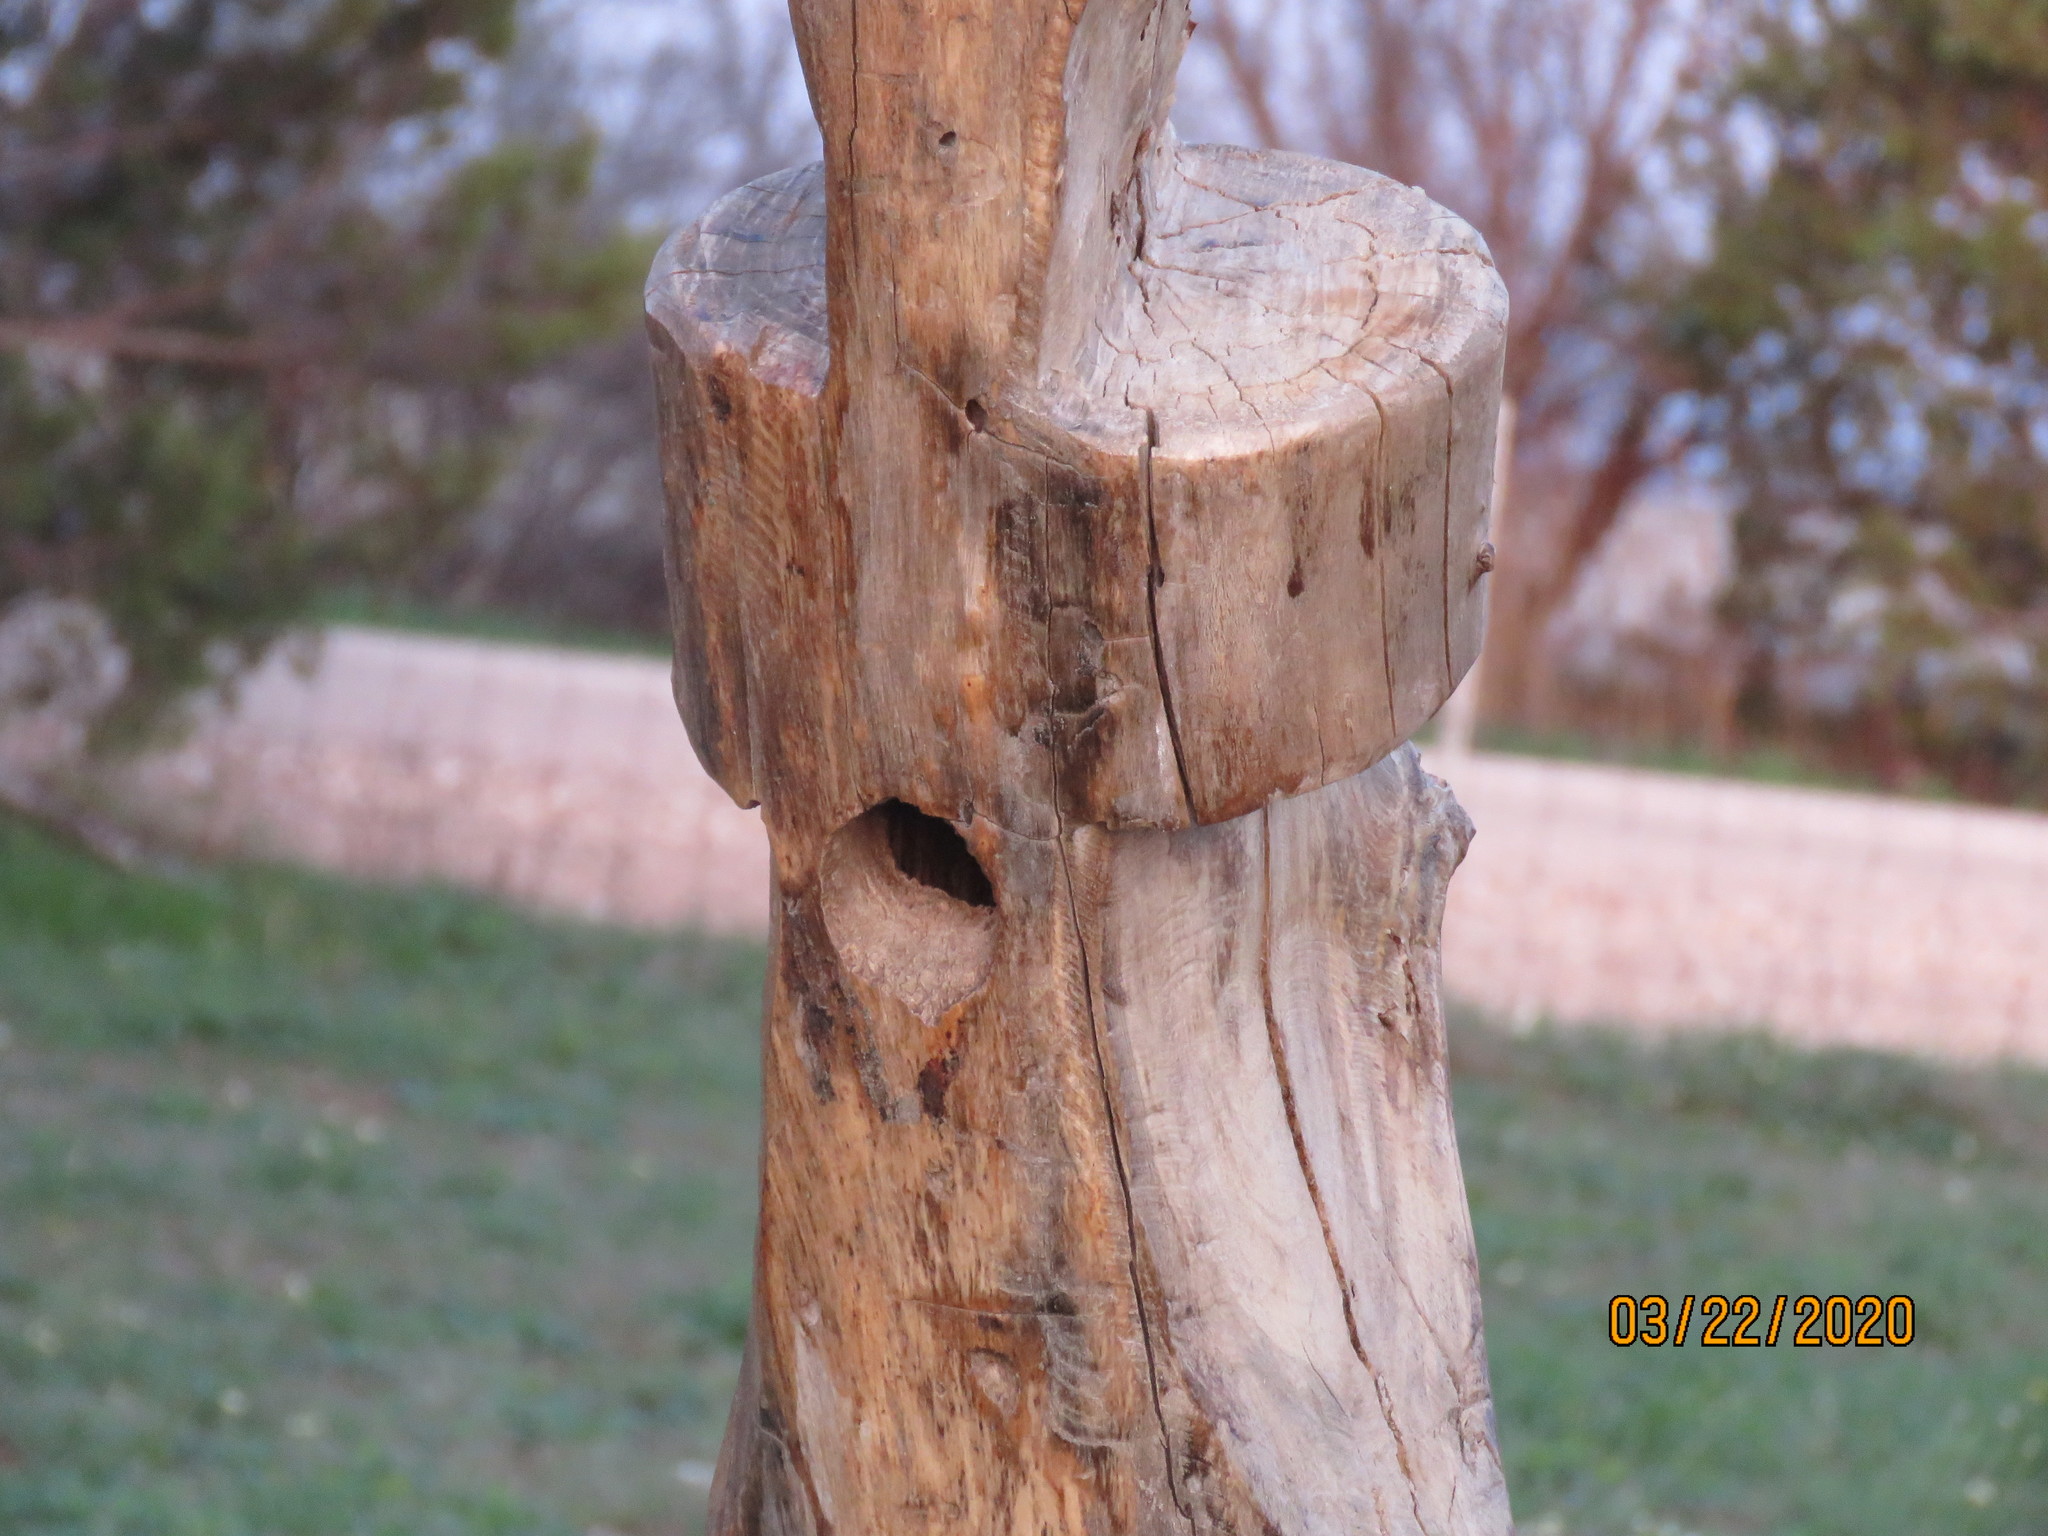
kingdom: Animalia
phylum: Chordata
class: Aves
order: Passeriformes
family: Turdidae
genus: Sialia
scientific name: Sialia sialis
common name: Eastern bluebird
